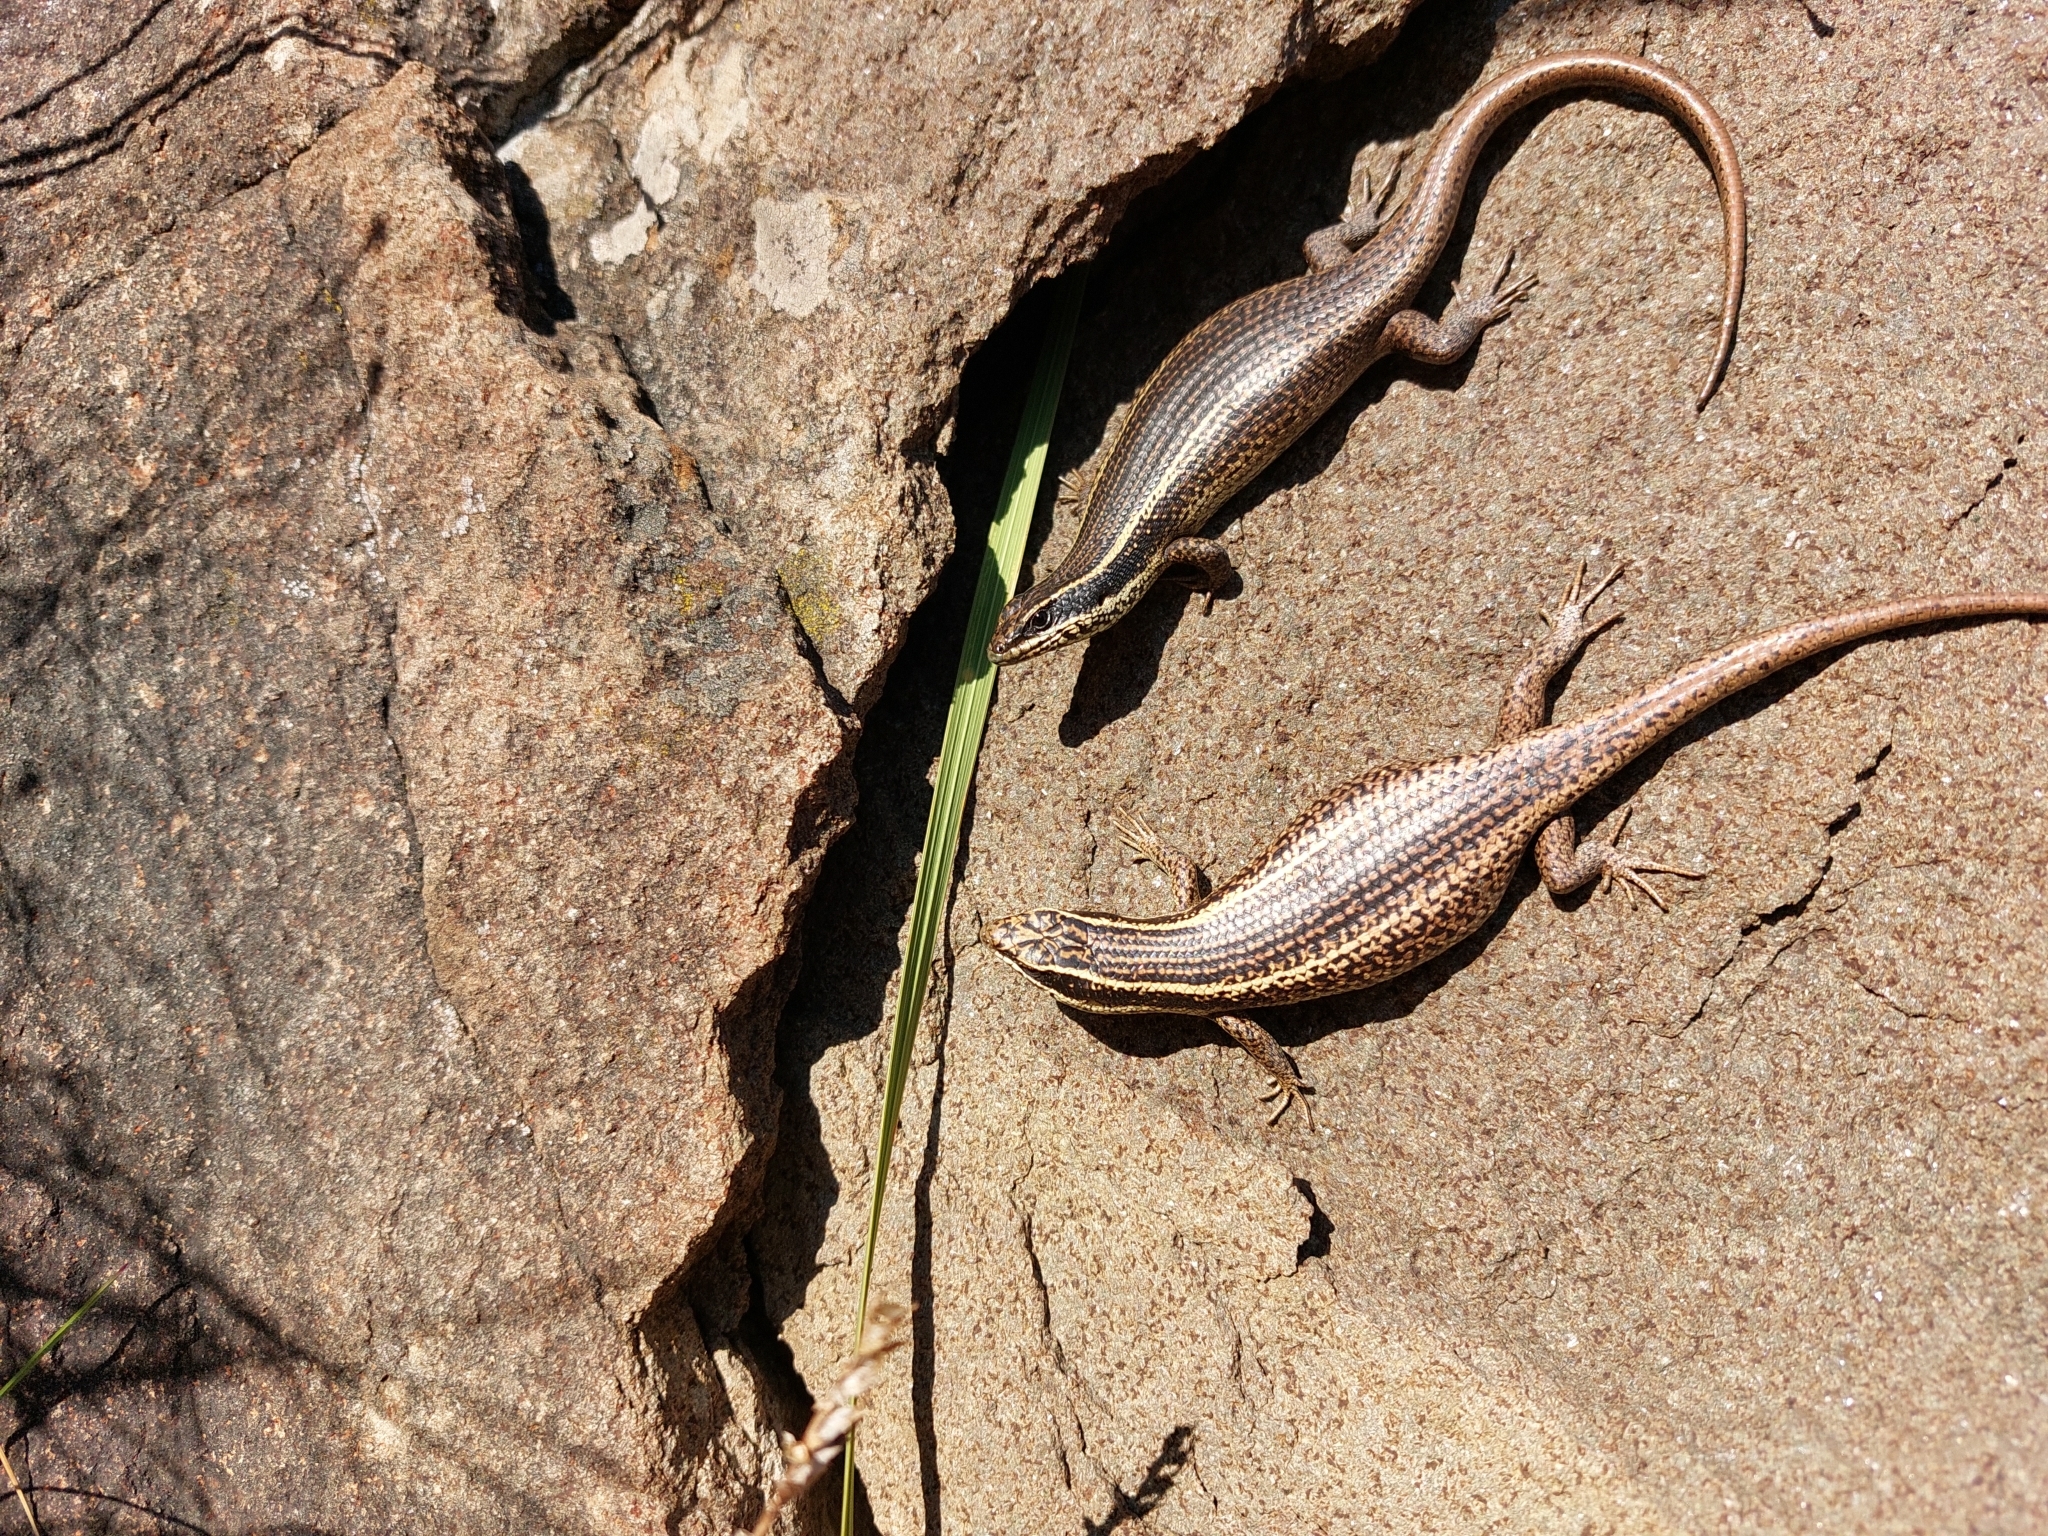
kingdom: Animalia
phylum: Chordata
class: Squamata
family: Scincidae
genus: Trachylepis
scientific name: Trachylepis punctatissima
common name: Montane speckled skink
